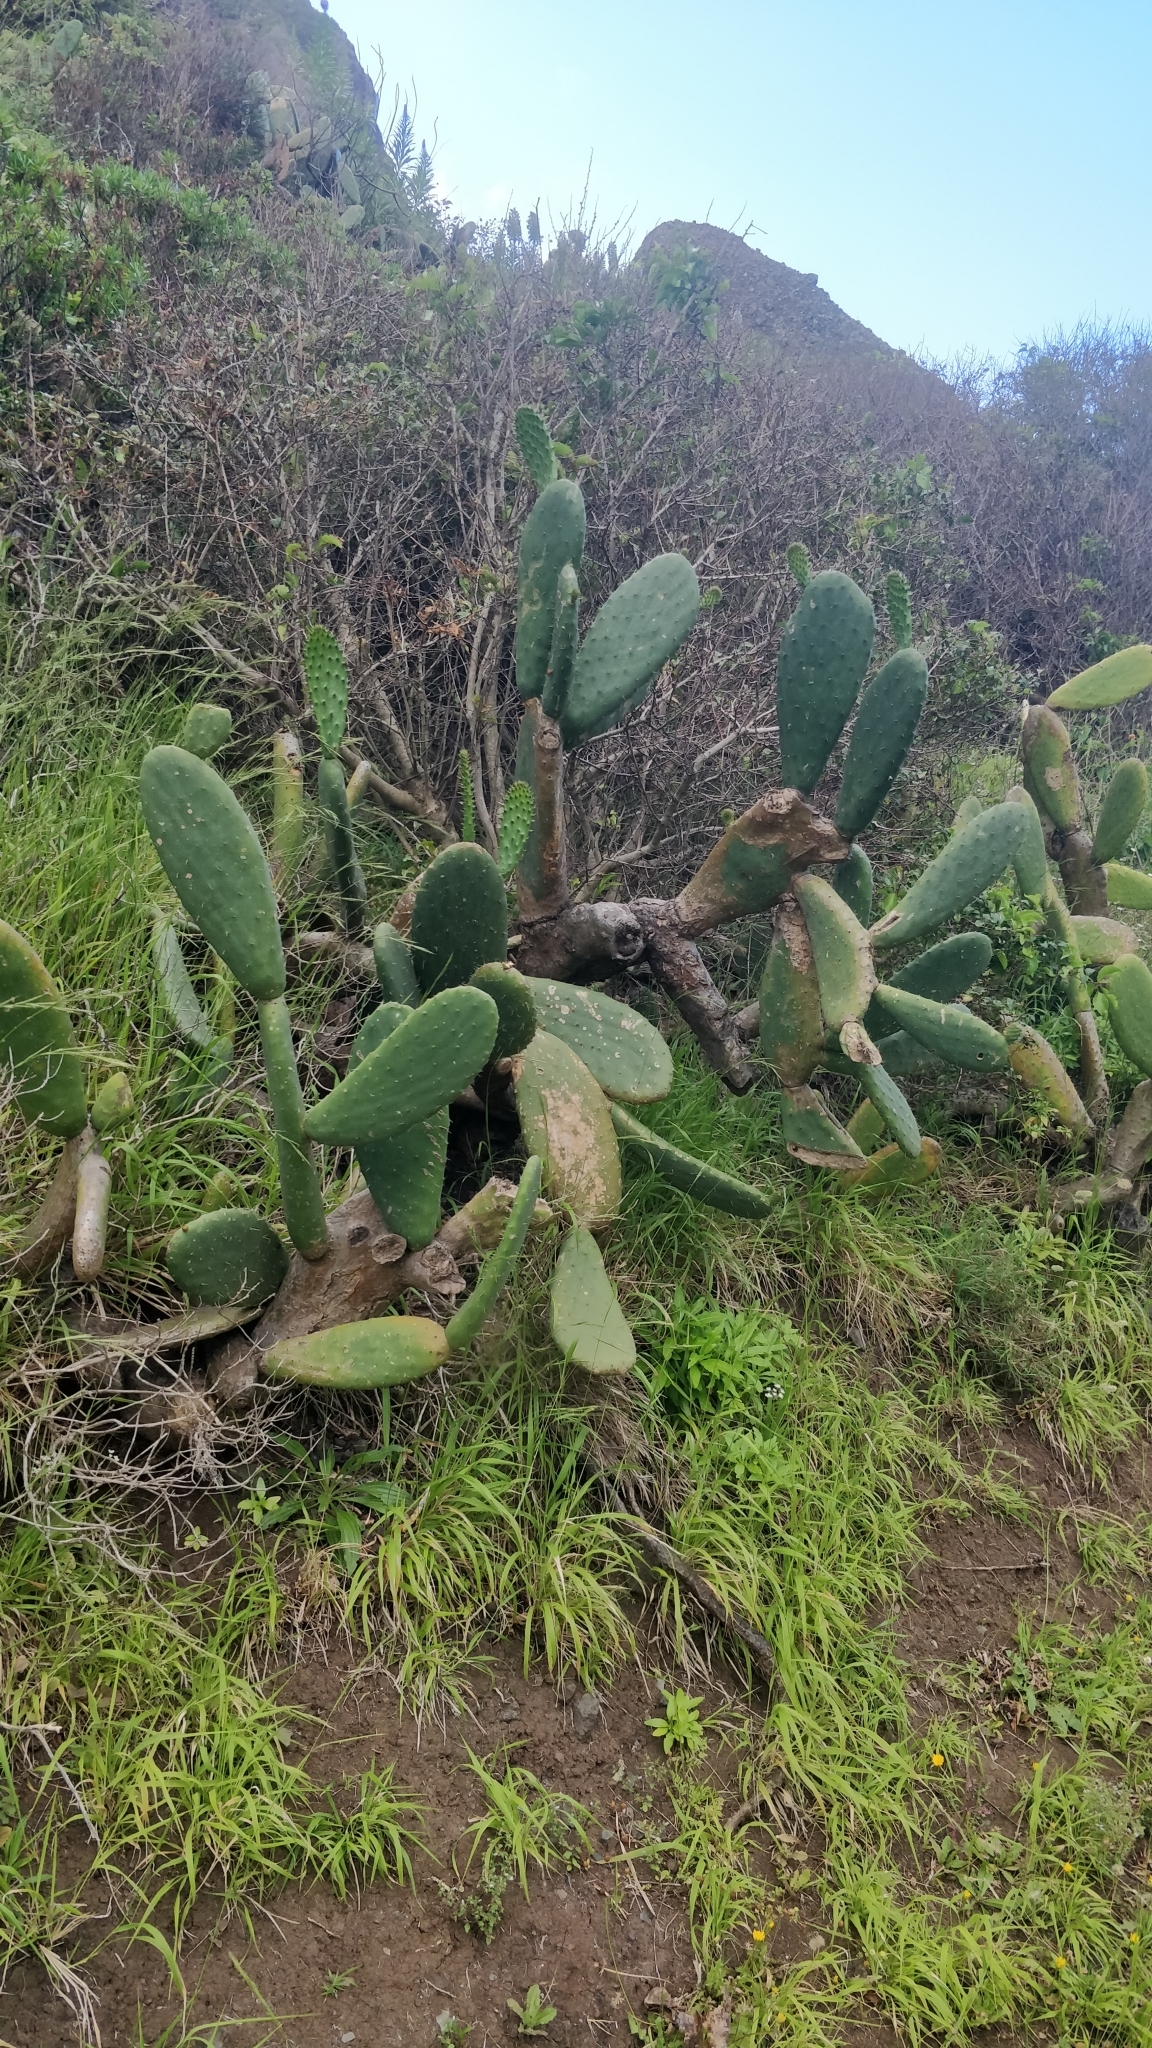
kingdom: Plantae
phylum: Tracheophyta
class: Magnoliopsida
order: Caryophyllales
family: Cactaceae
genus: Opuntia
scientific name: Opuntia ficus-indica
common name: Barbary fig
